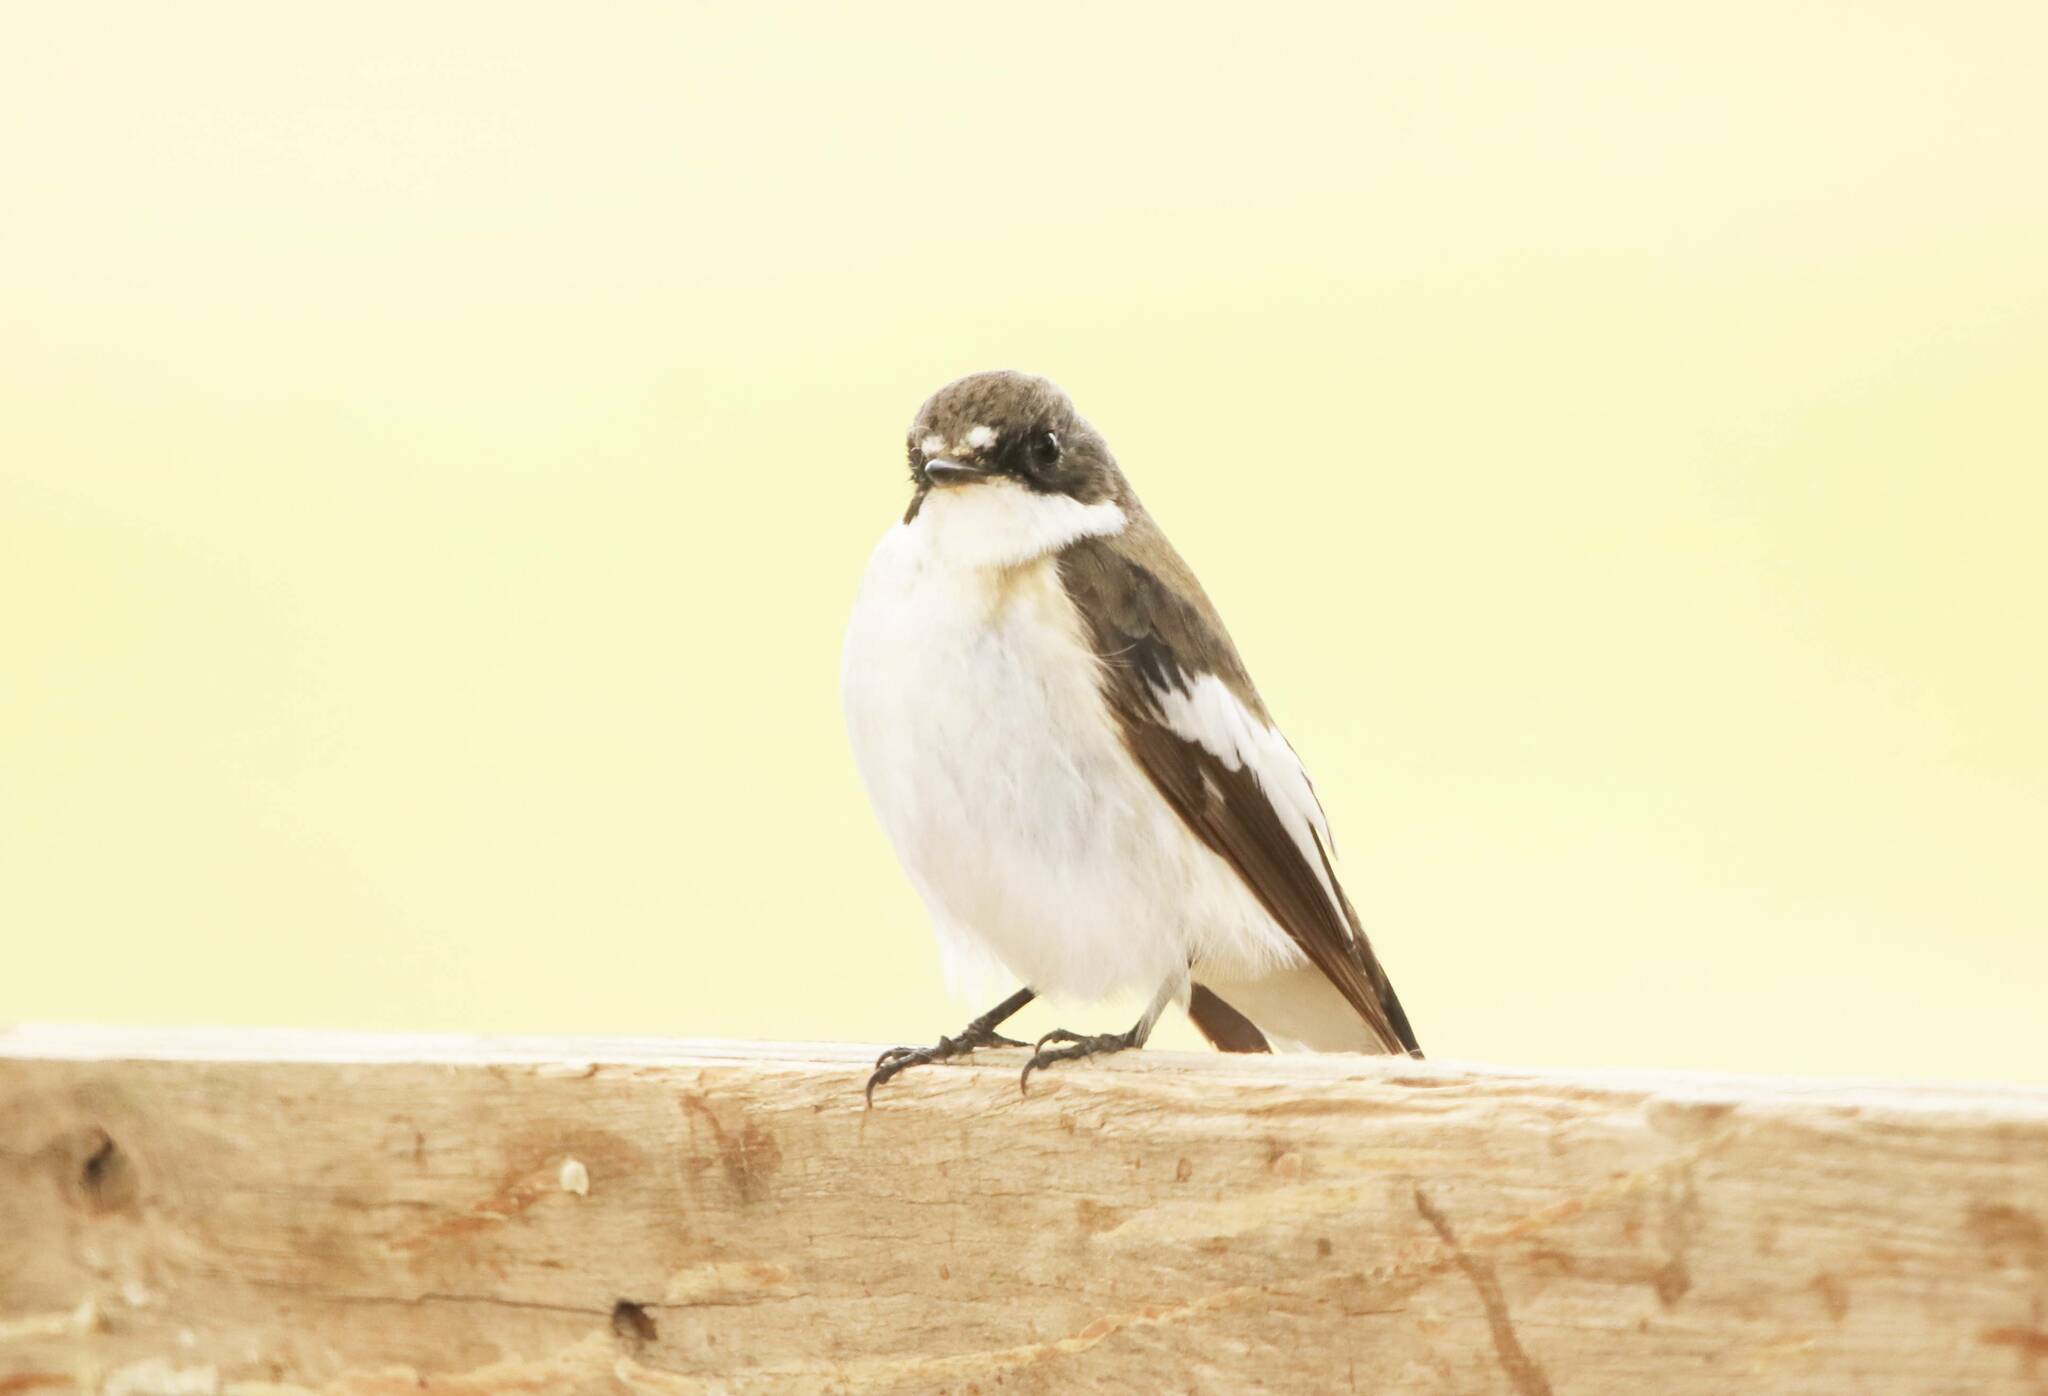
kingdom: Animalia
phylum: Chordata
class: Aves
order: Passeriformes
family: Muscicapidae
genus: Ficedula
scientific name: Ficedula hypoleuca
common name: European pied flycatcher
